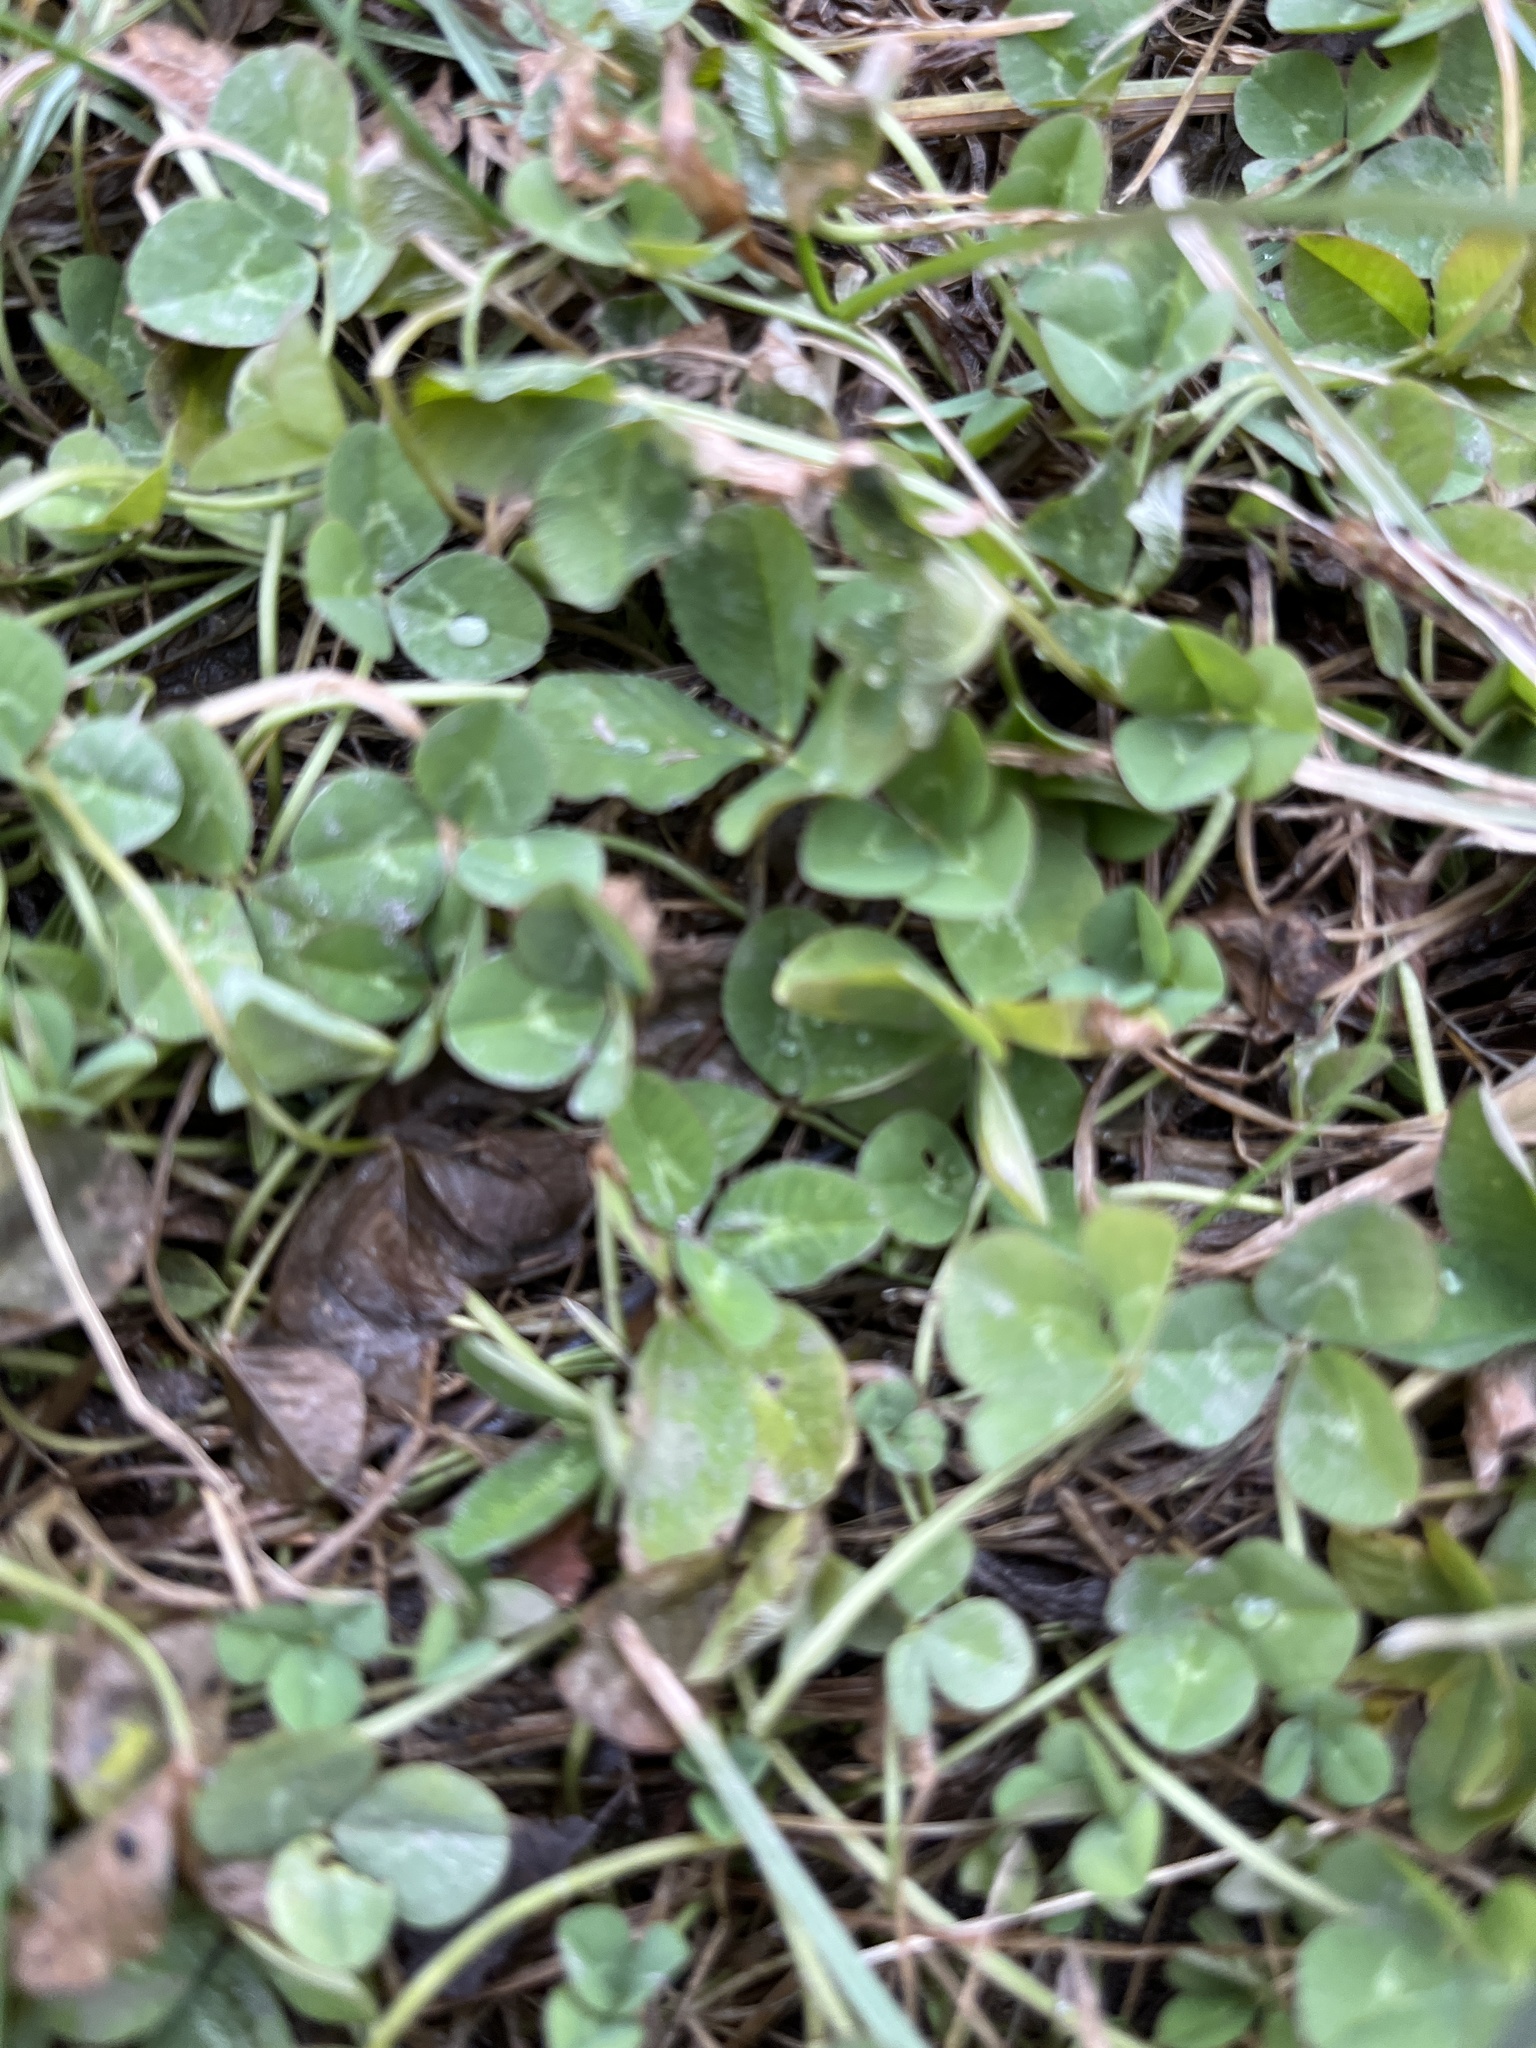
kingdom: Plantae
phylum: Tracheophyta
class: Magnoliopsida
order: Fabales
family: Fabaceae
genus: Trifolium
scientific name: Trifolium repens
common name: White clover
